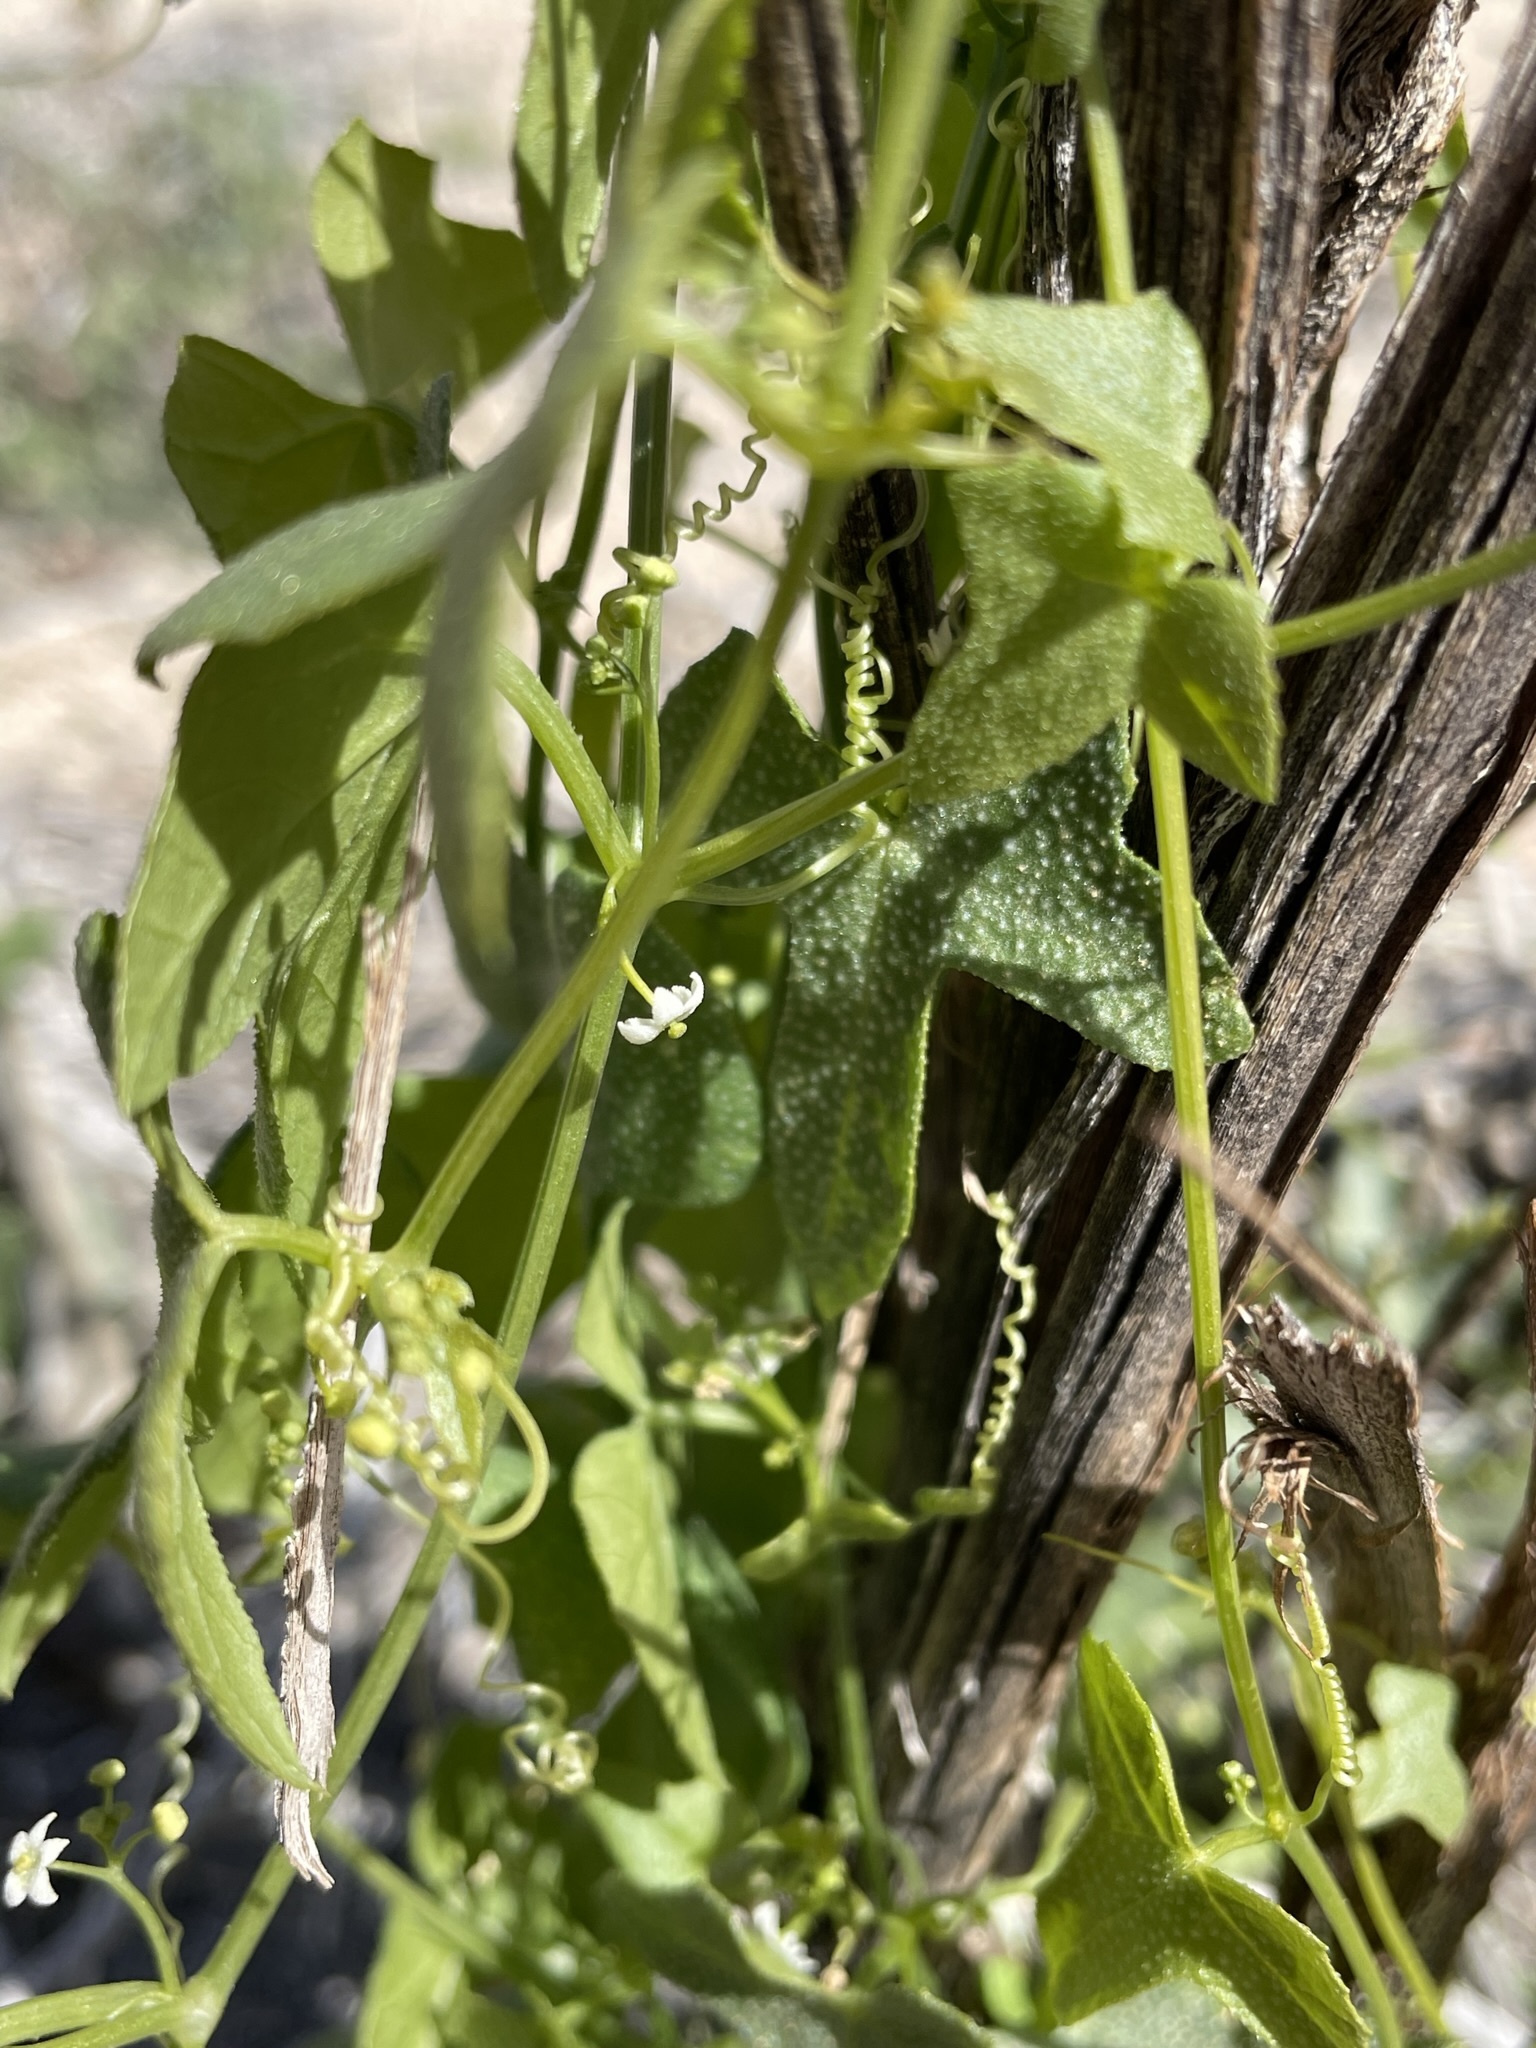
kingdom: Plantae
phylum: Tracheophyta
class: Magnoliopsida
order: Cucurbitales
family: Cucurbitaceae
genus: Echinopepon
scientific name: Echinopepon bigelovii
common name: Desert starvine
